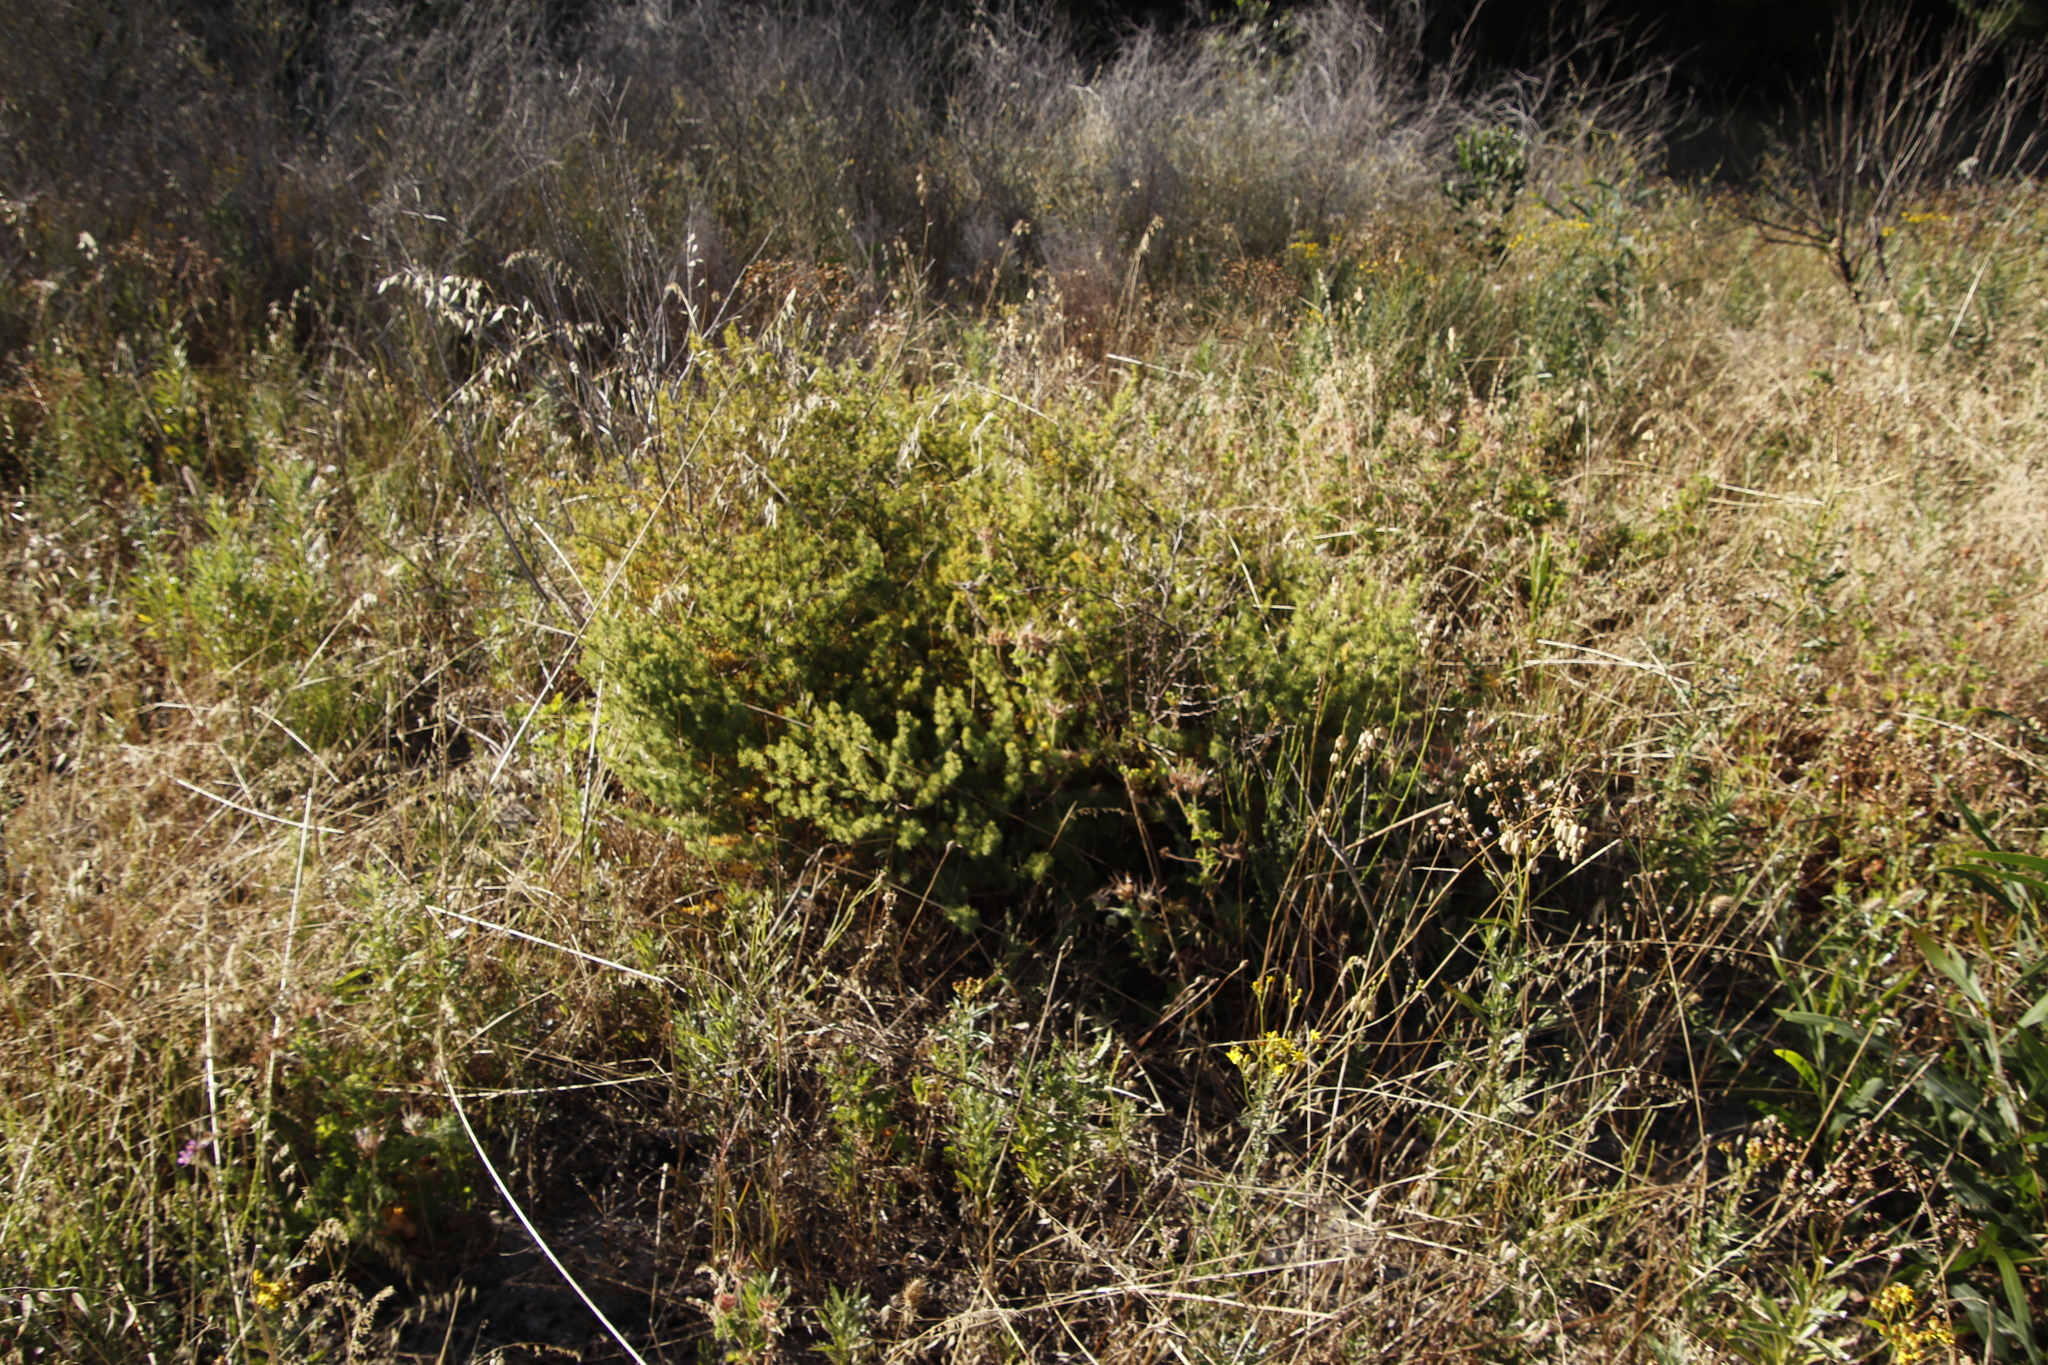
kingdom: Plantae
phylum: Tracheophyta
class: Liliopsida
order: Asparagales
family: Asparagaceae
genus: Asparagus
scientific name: Asparagus rubicundus
